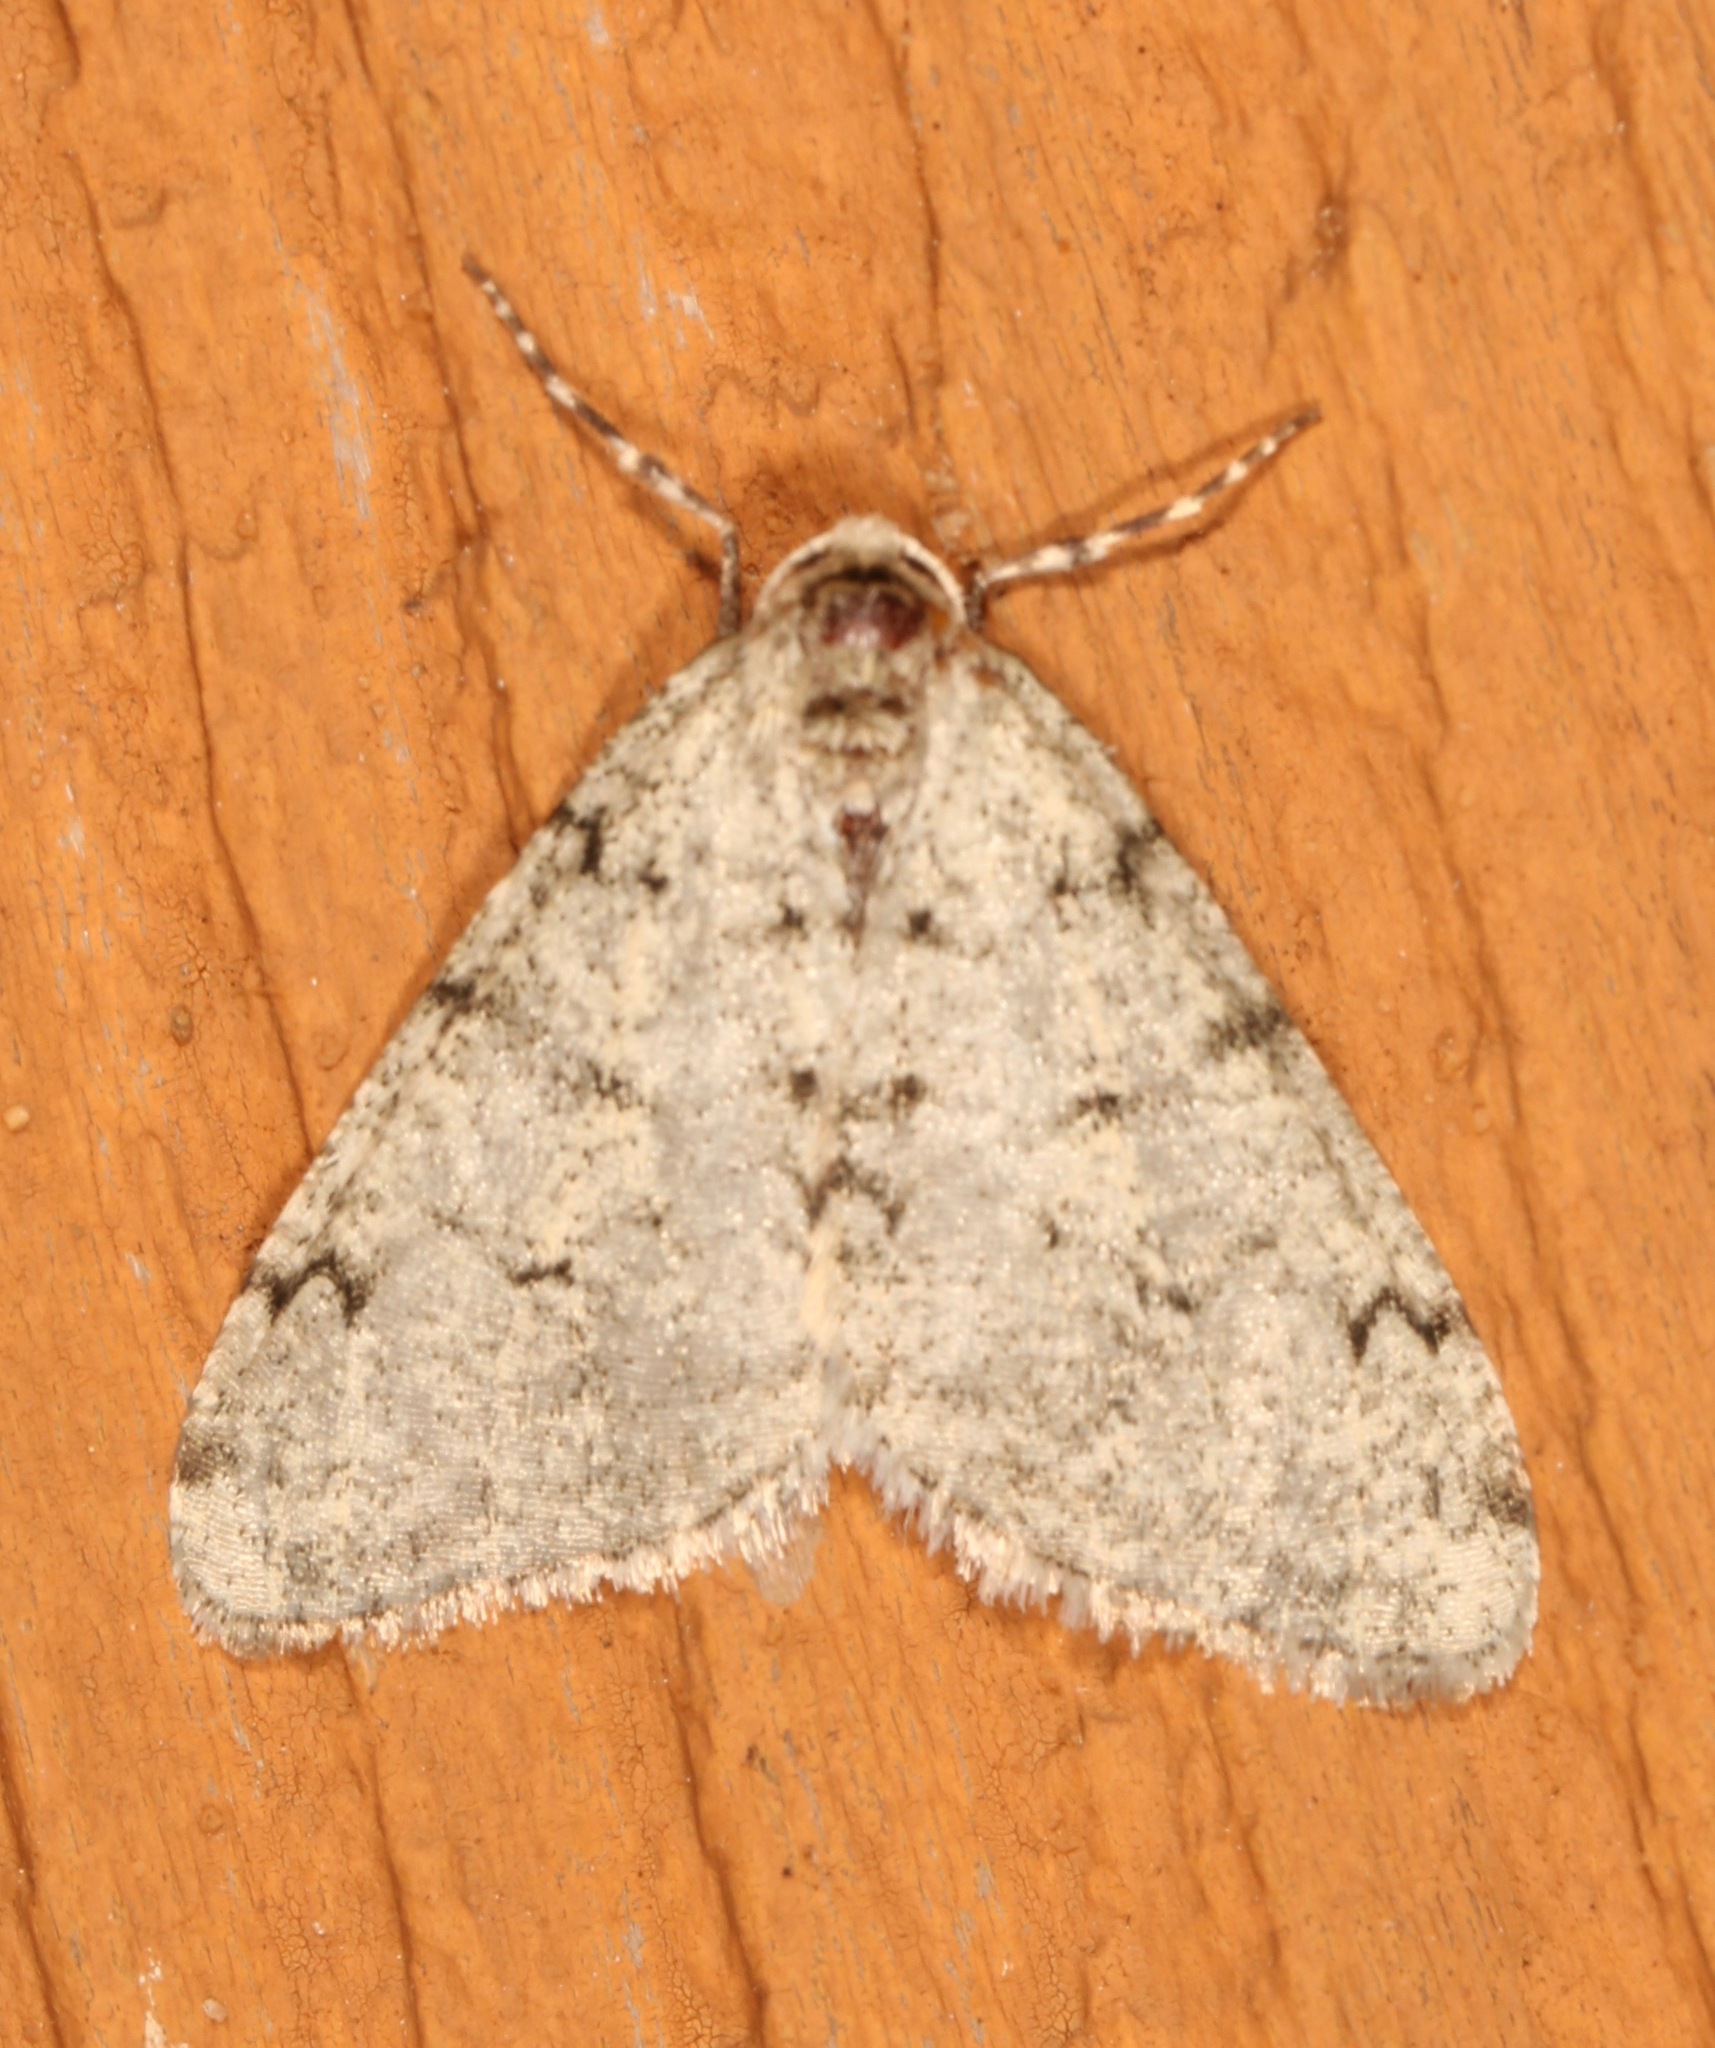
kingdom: Animalia
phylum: Arthropoda
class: Insecta
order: Lepidoptera
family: Geometridae
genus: Phigalia
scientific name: Phigalia strigataria
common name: Small phigalia
